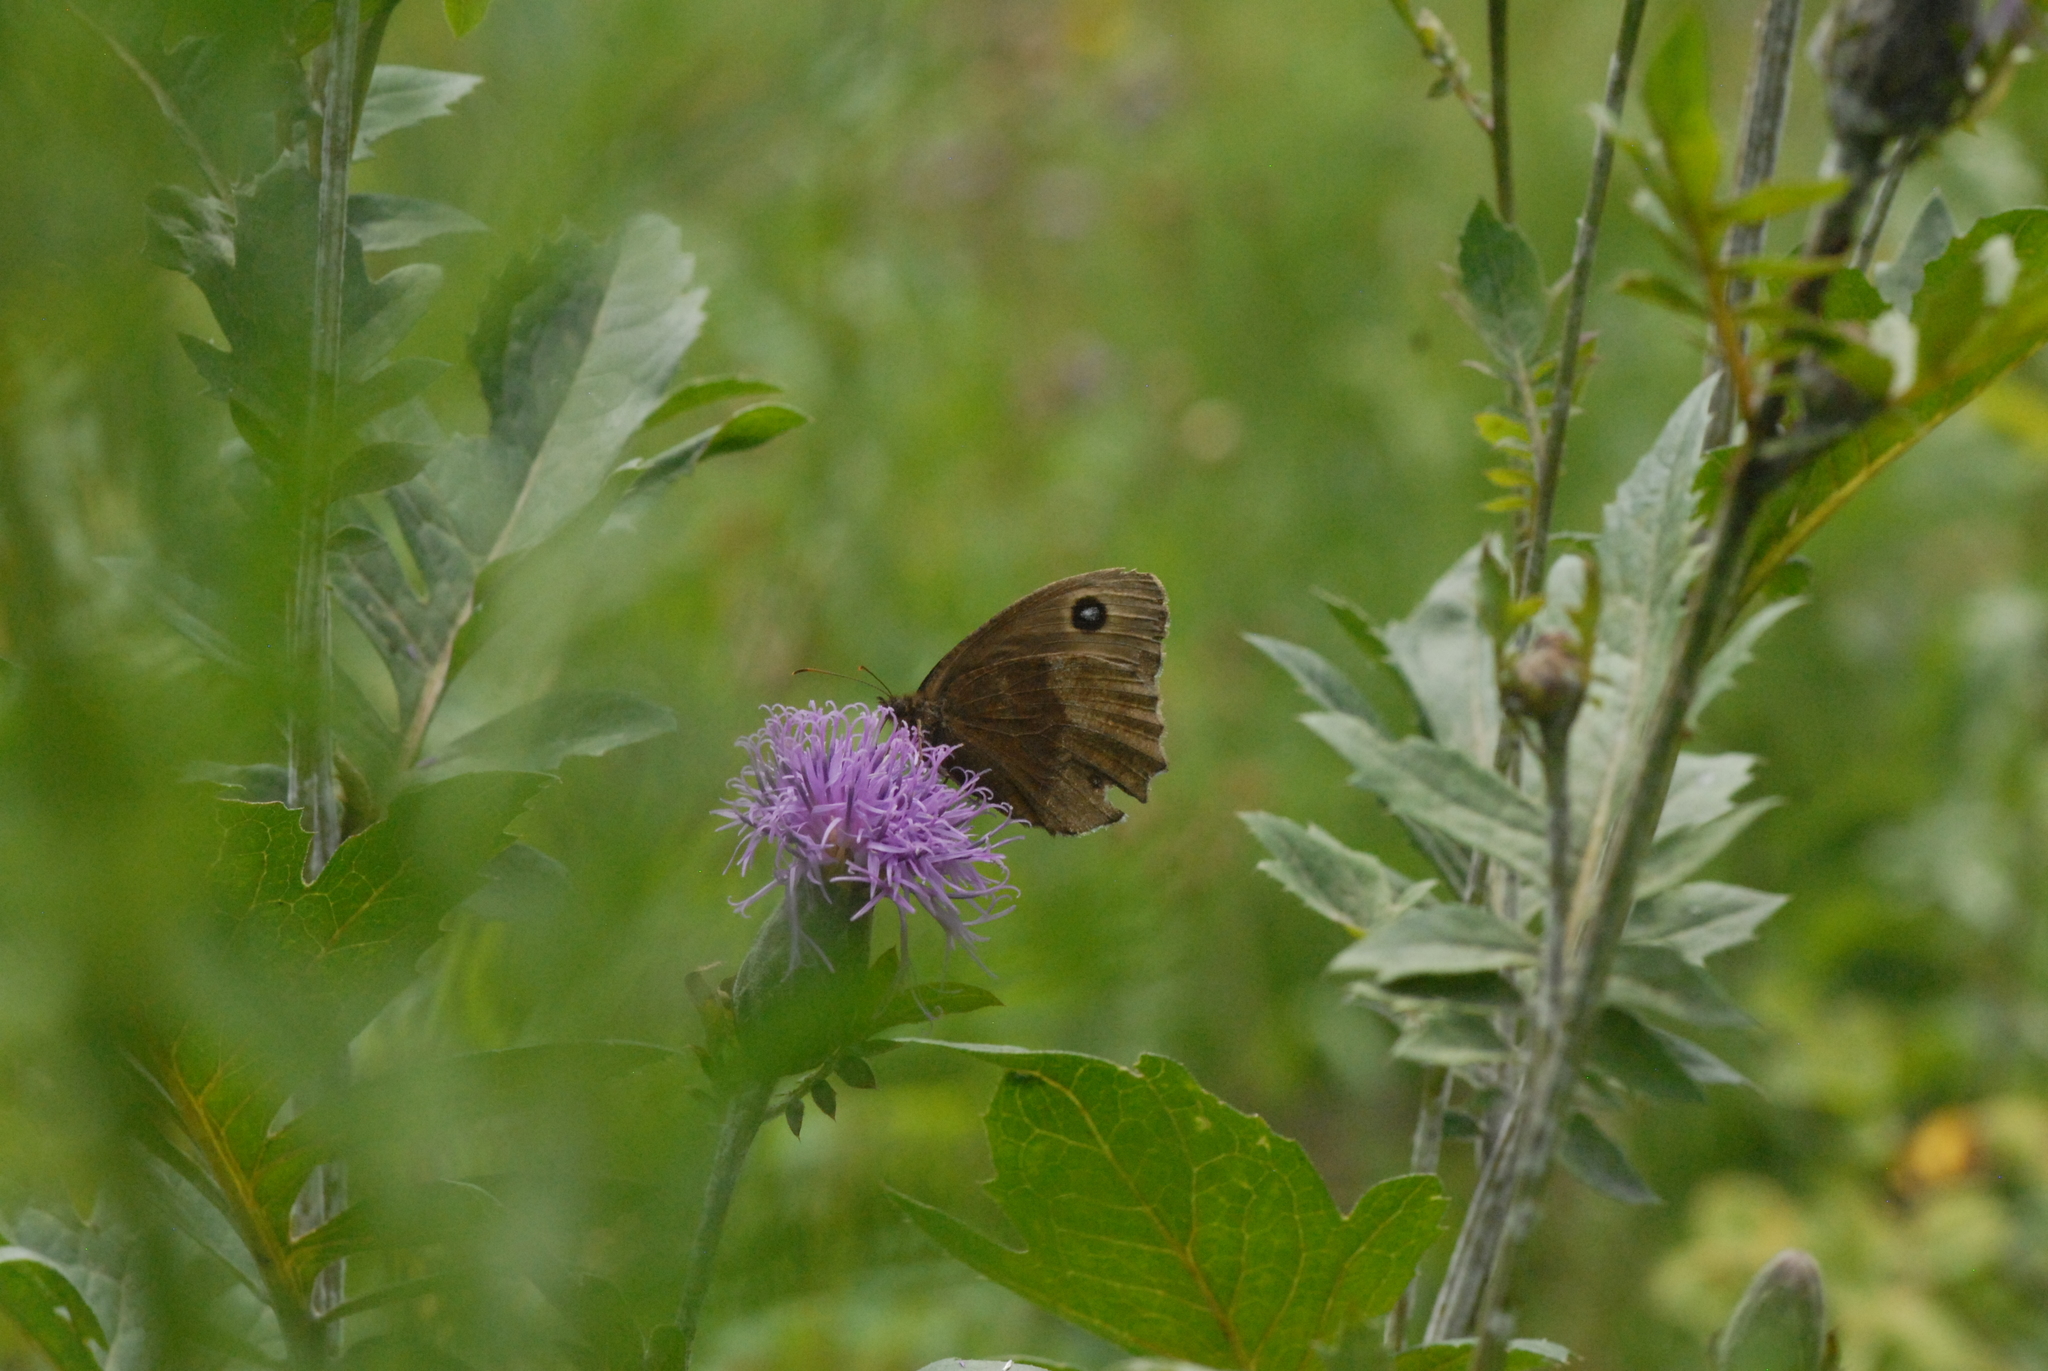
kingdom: Animalia
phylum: Arthropoda
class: Insecta
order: Lepidoptera
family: Nymphalidae
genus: Minois
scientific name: Minois dryas
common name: Dryad
